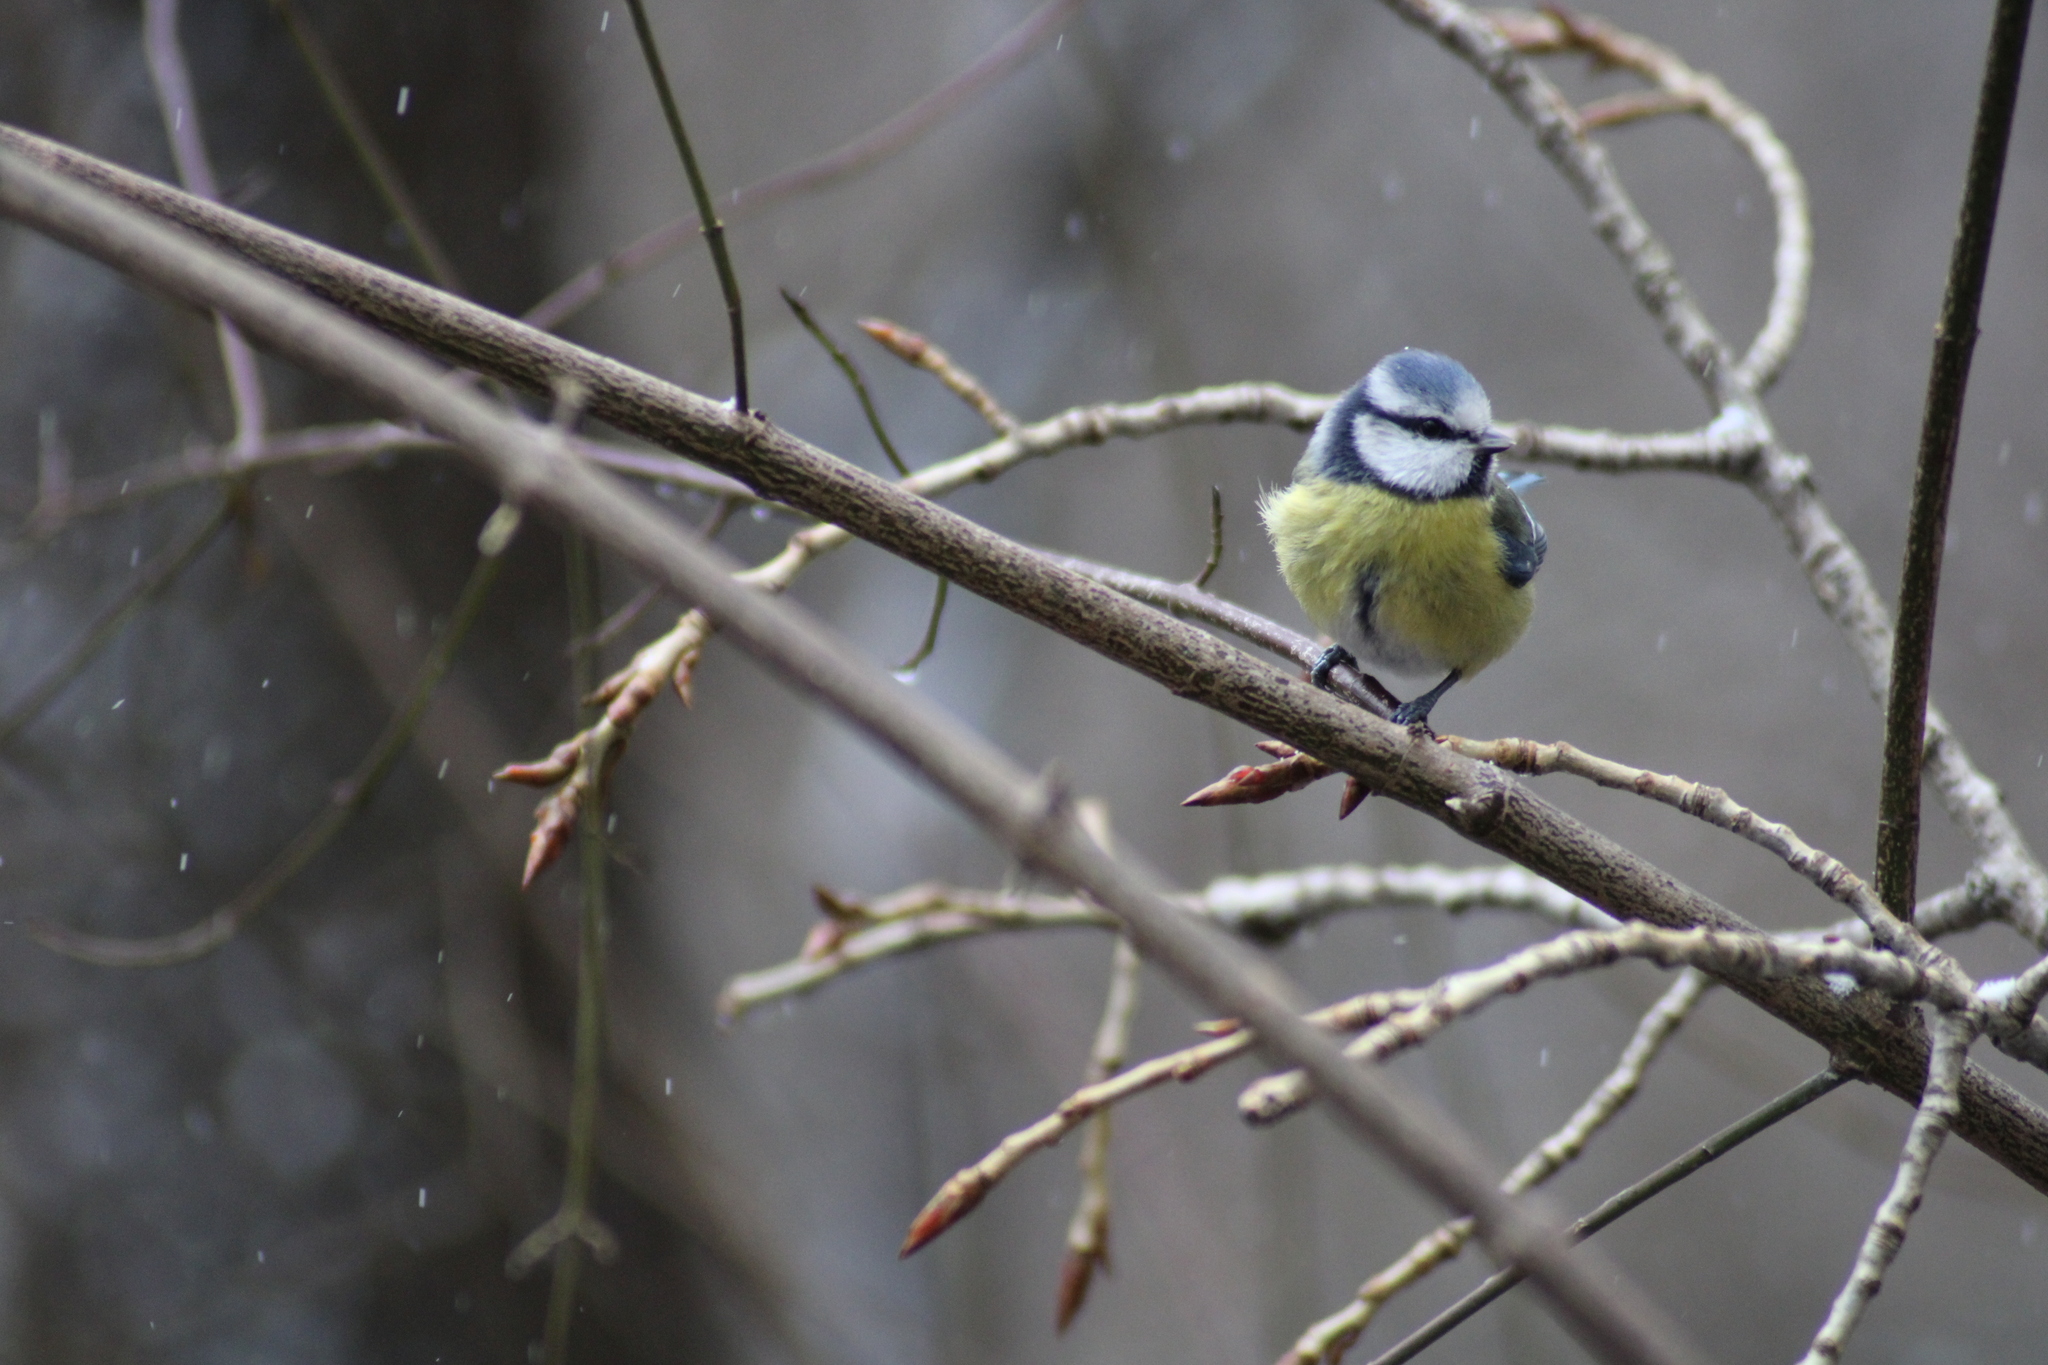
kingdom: Animalia
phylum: Chordata
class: Aves
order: Passeriformes
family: Paridae
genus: Cyanistes
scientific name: Cyanistes caeruleus
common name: Eurasian blue tit
